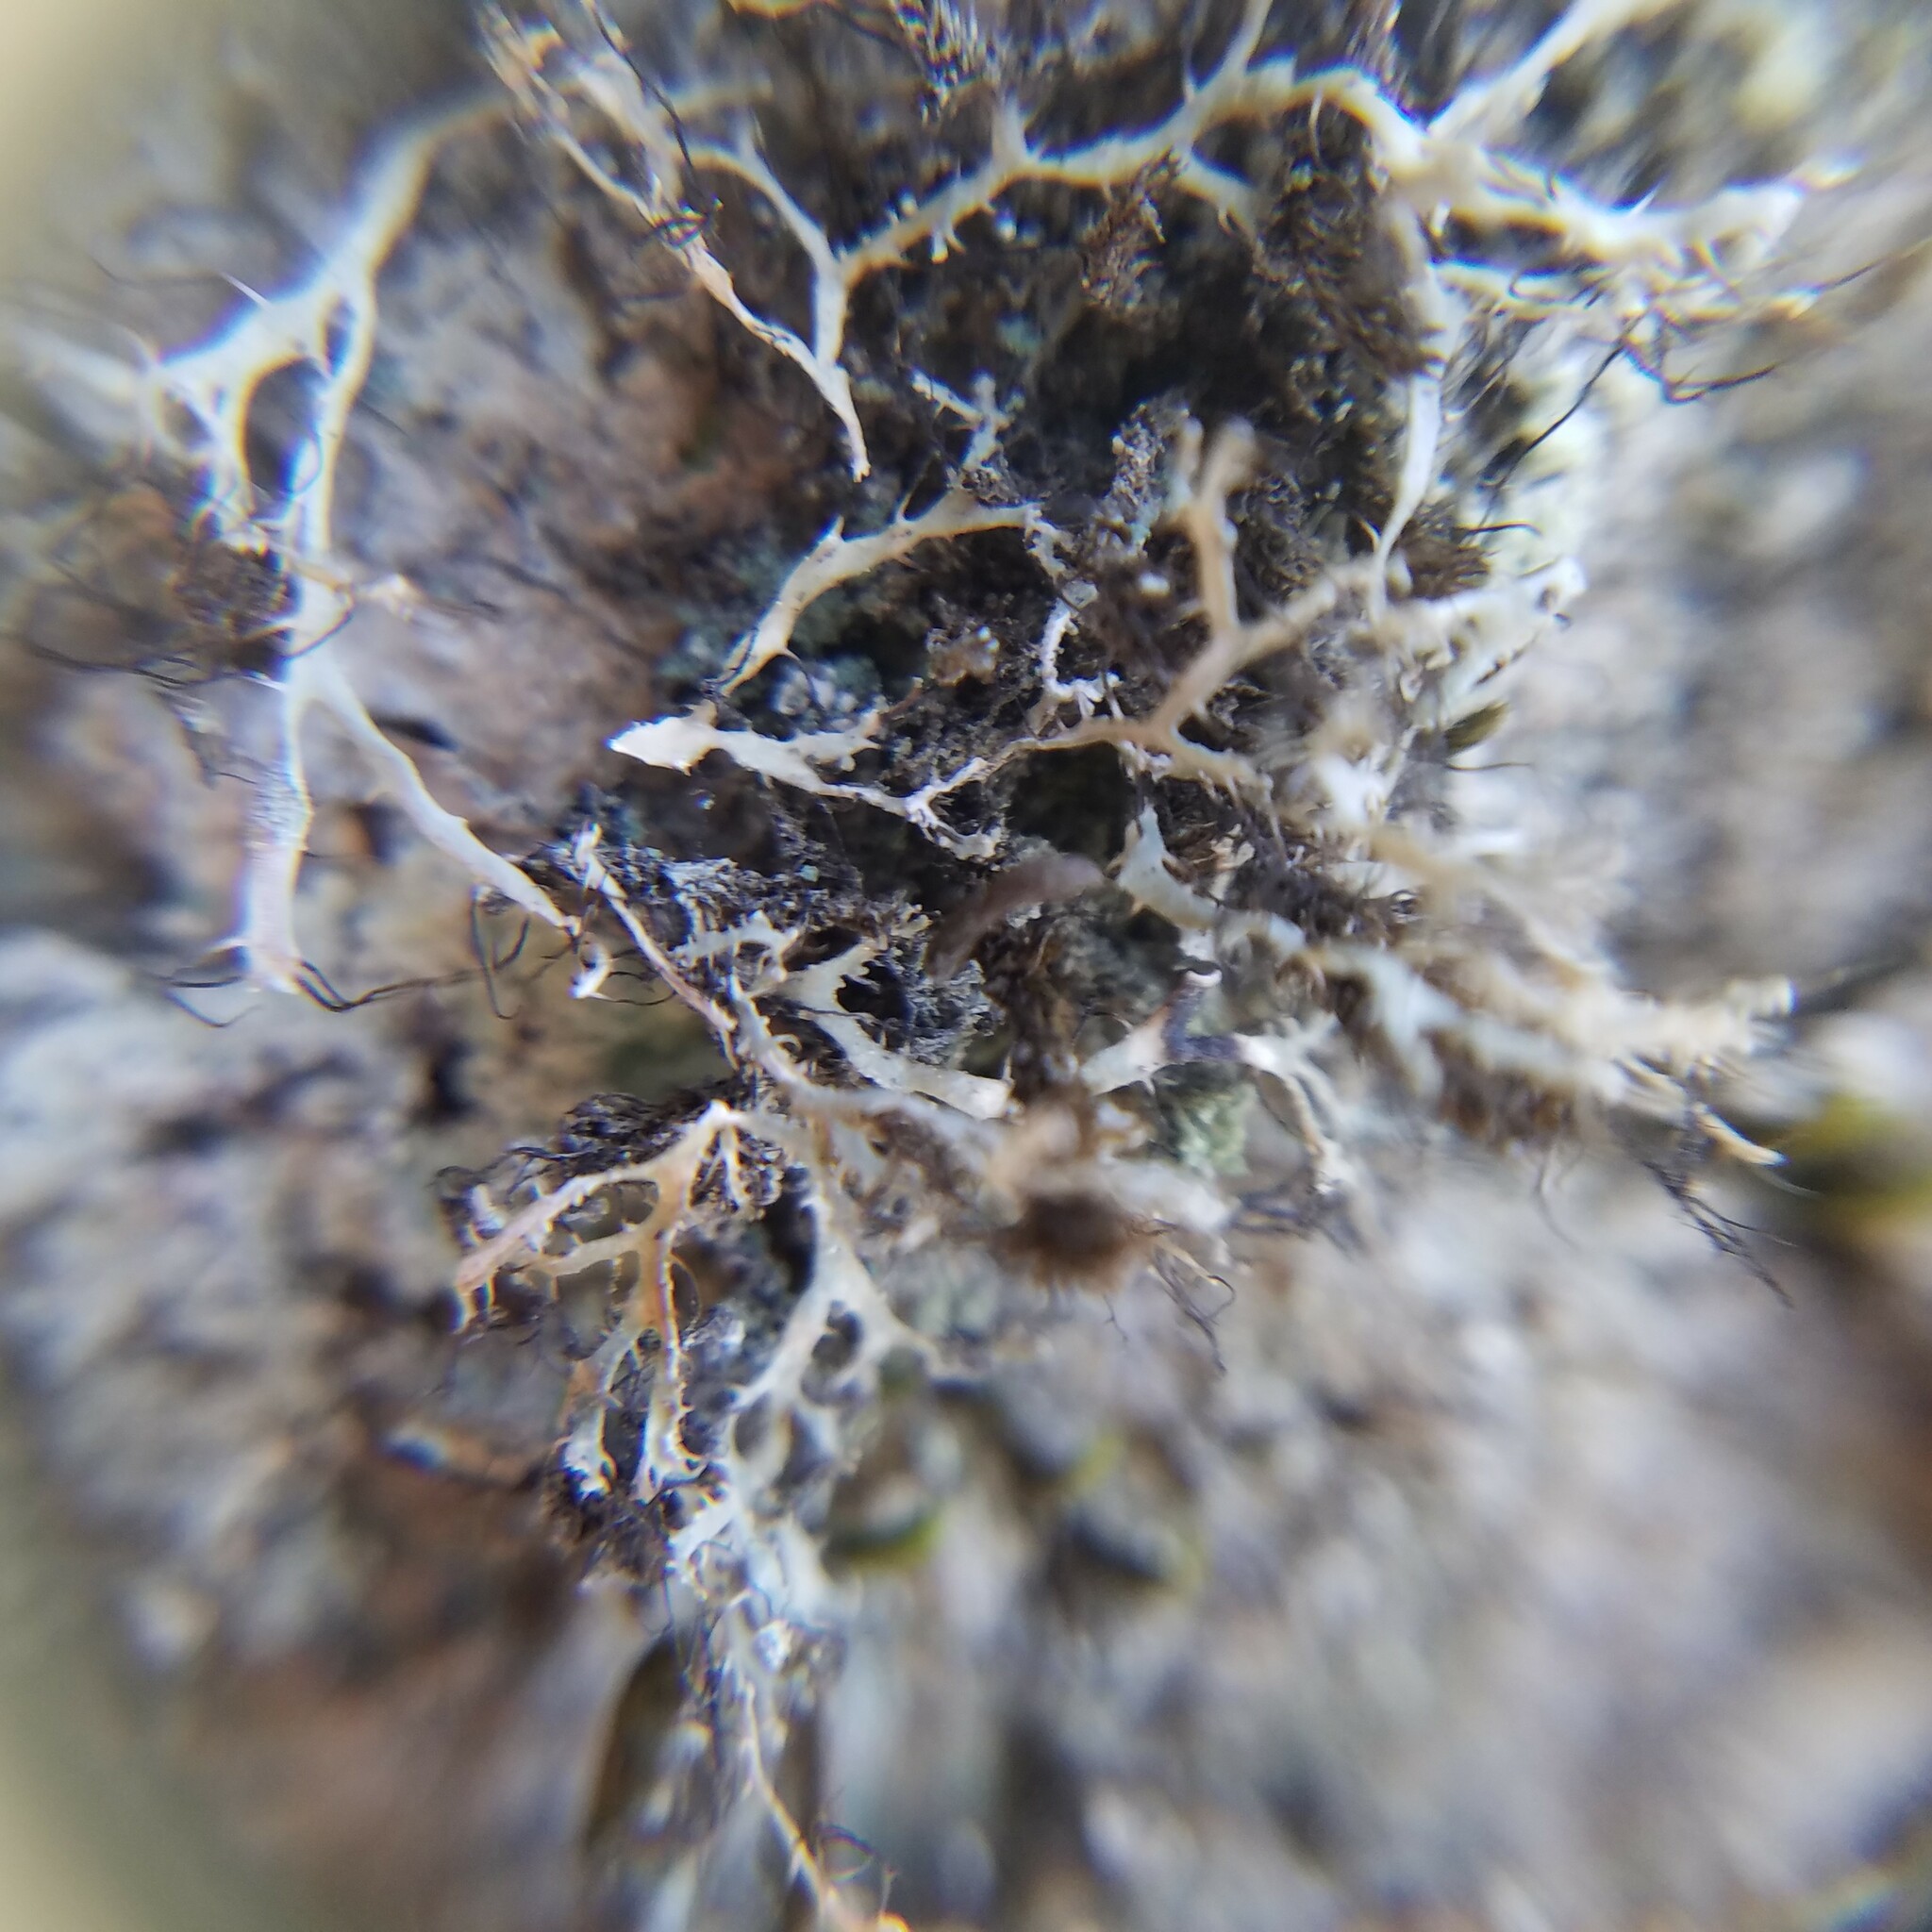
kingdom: Fungi
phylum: Ascomycota
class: Lecanoromycetes
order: Caliciales
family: Physciaceae
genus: Leucodermia
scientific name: Leucodermia leucomelos
